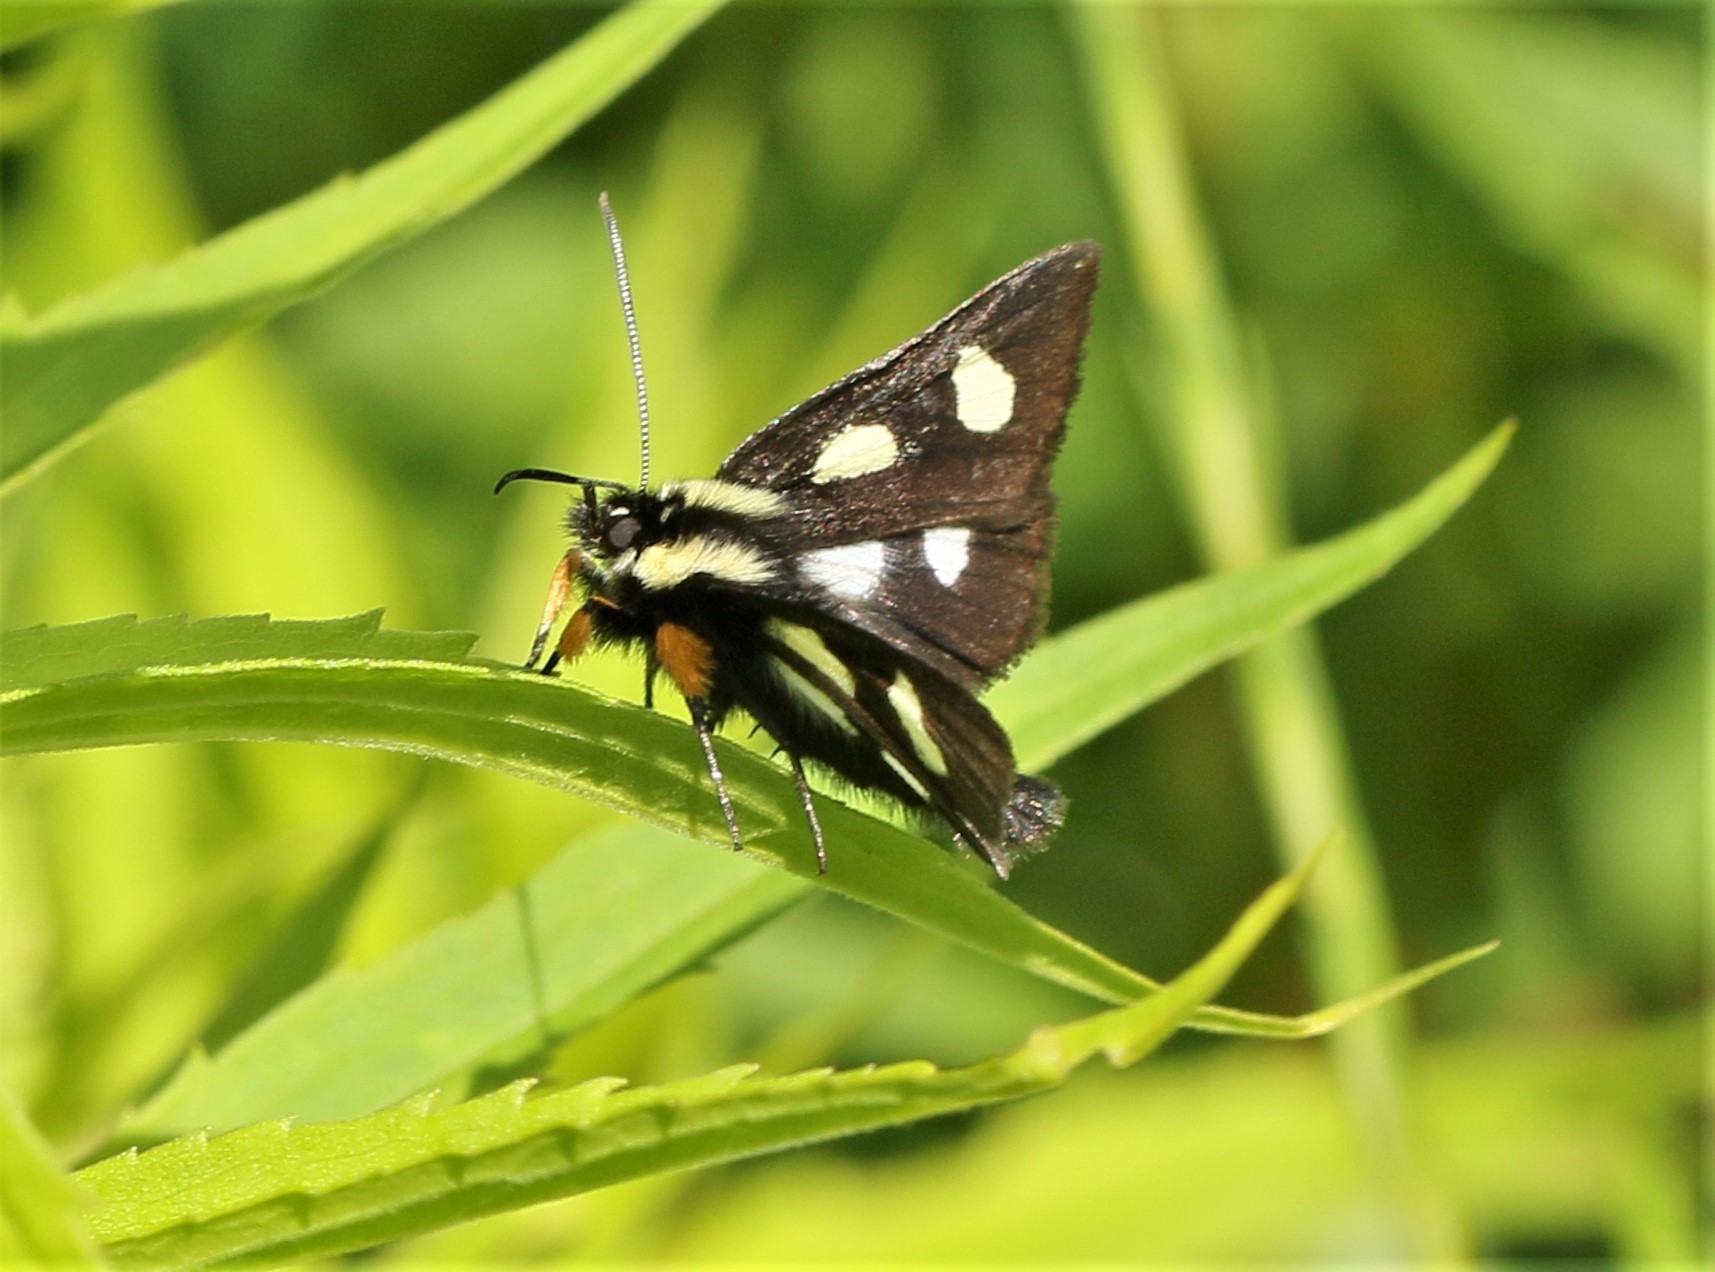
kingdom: Animalia
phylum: Arthropoda
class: Insecta
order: Lepidoptera
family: Noctuidae
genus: Alypia
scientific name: Alypia langtonii
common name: Fireweed caterpillar
